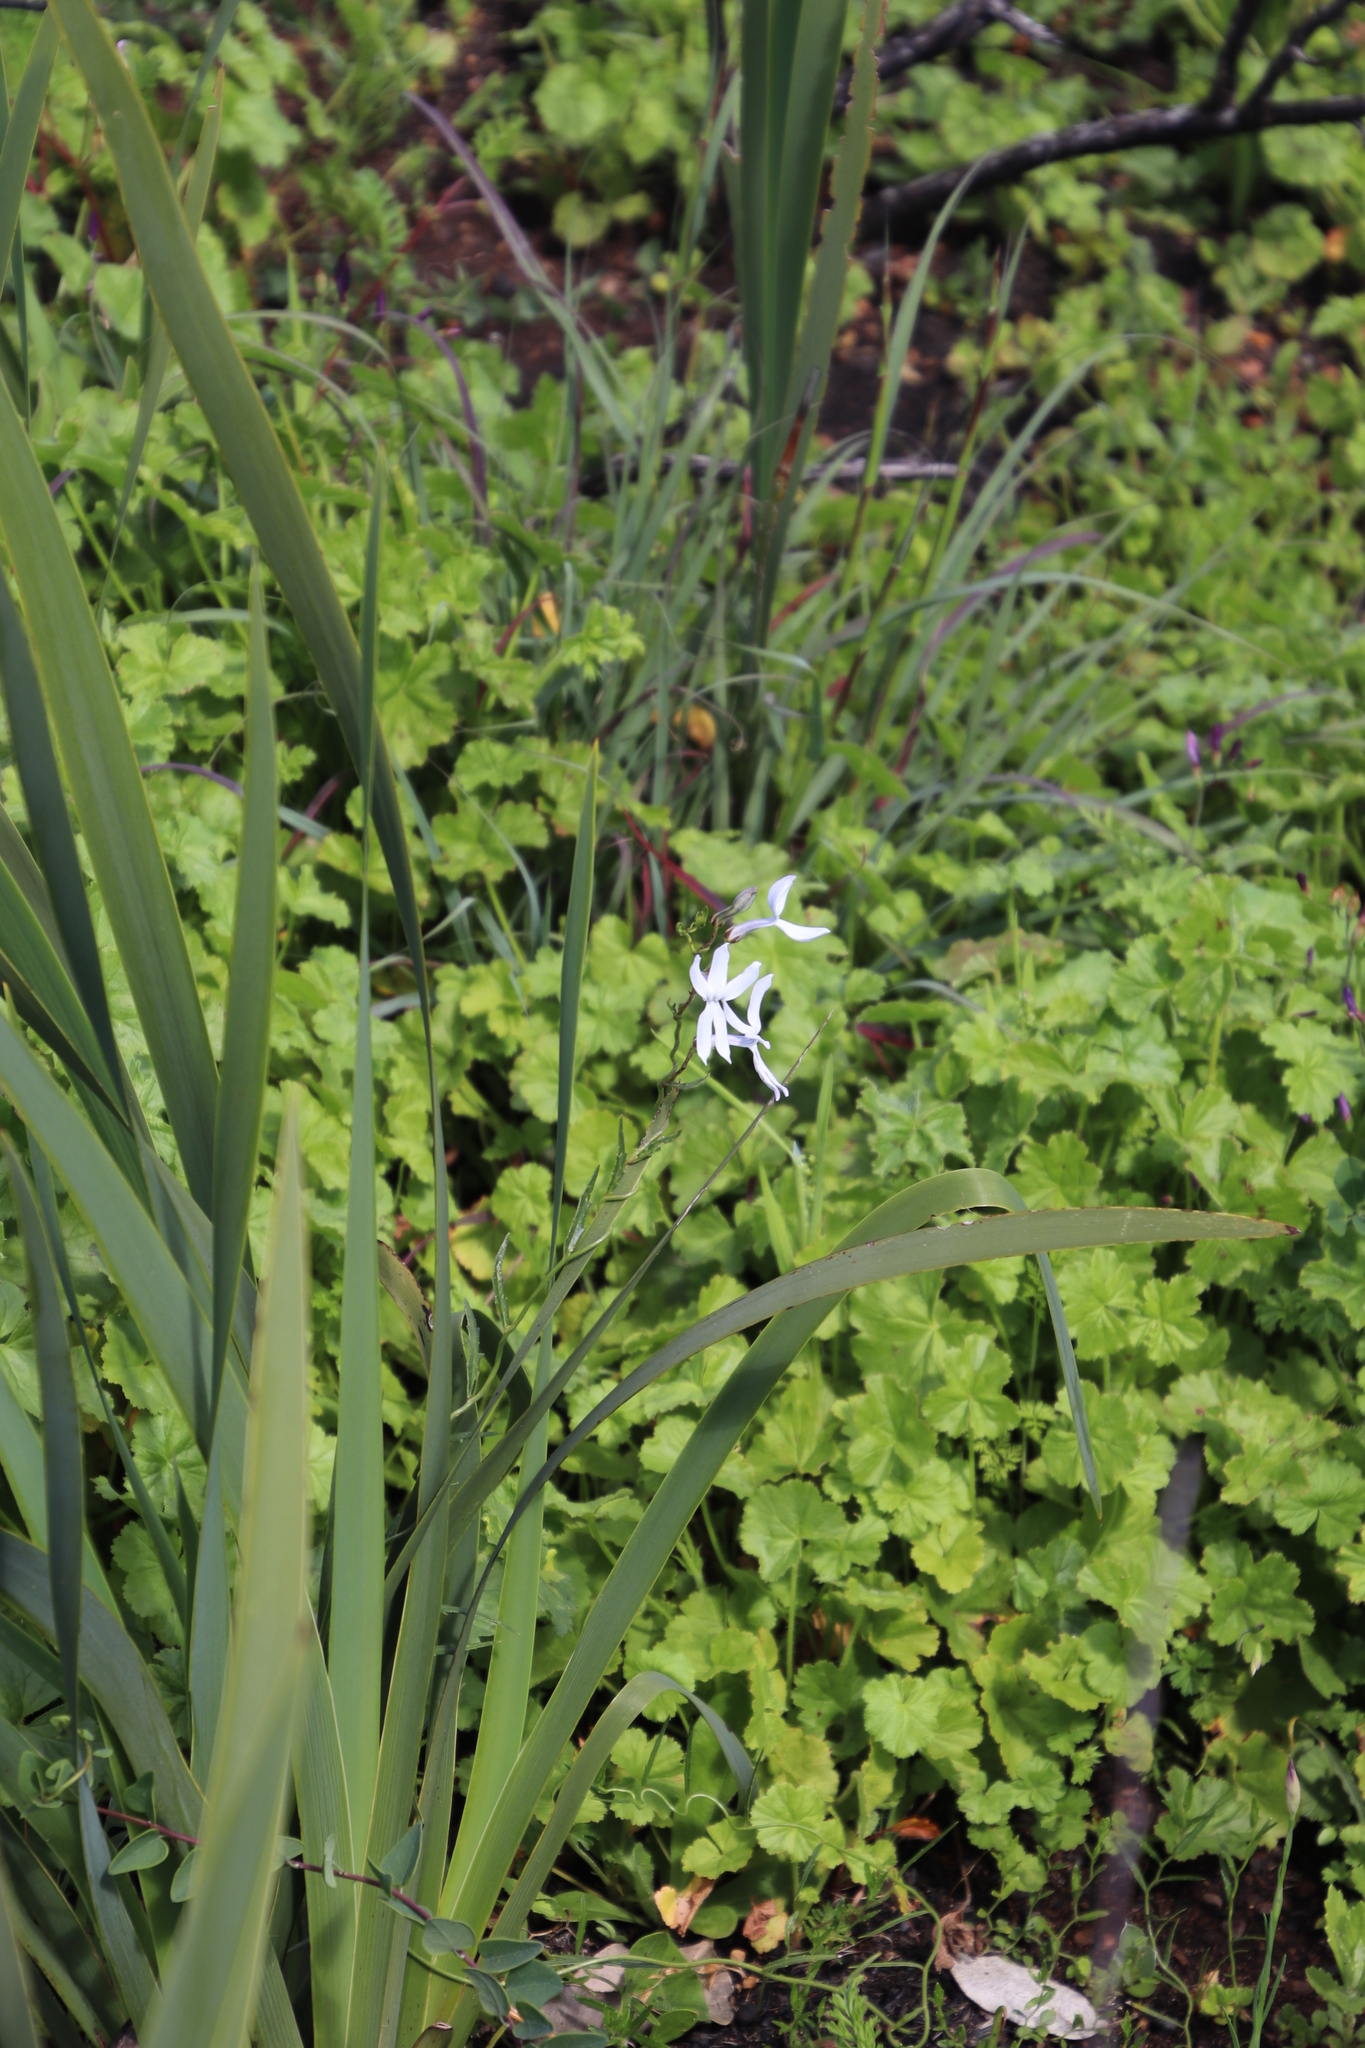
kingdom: Plantae
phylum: Tracheophyta
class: Magnoliopsida
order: Asterales
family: Campanulaceae
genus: Cyphia
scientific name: Cyphia volubilis
